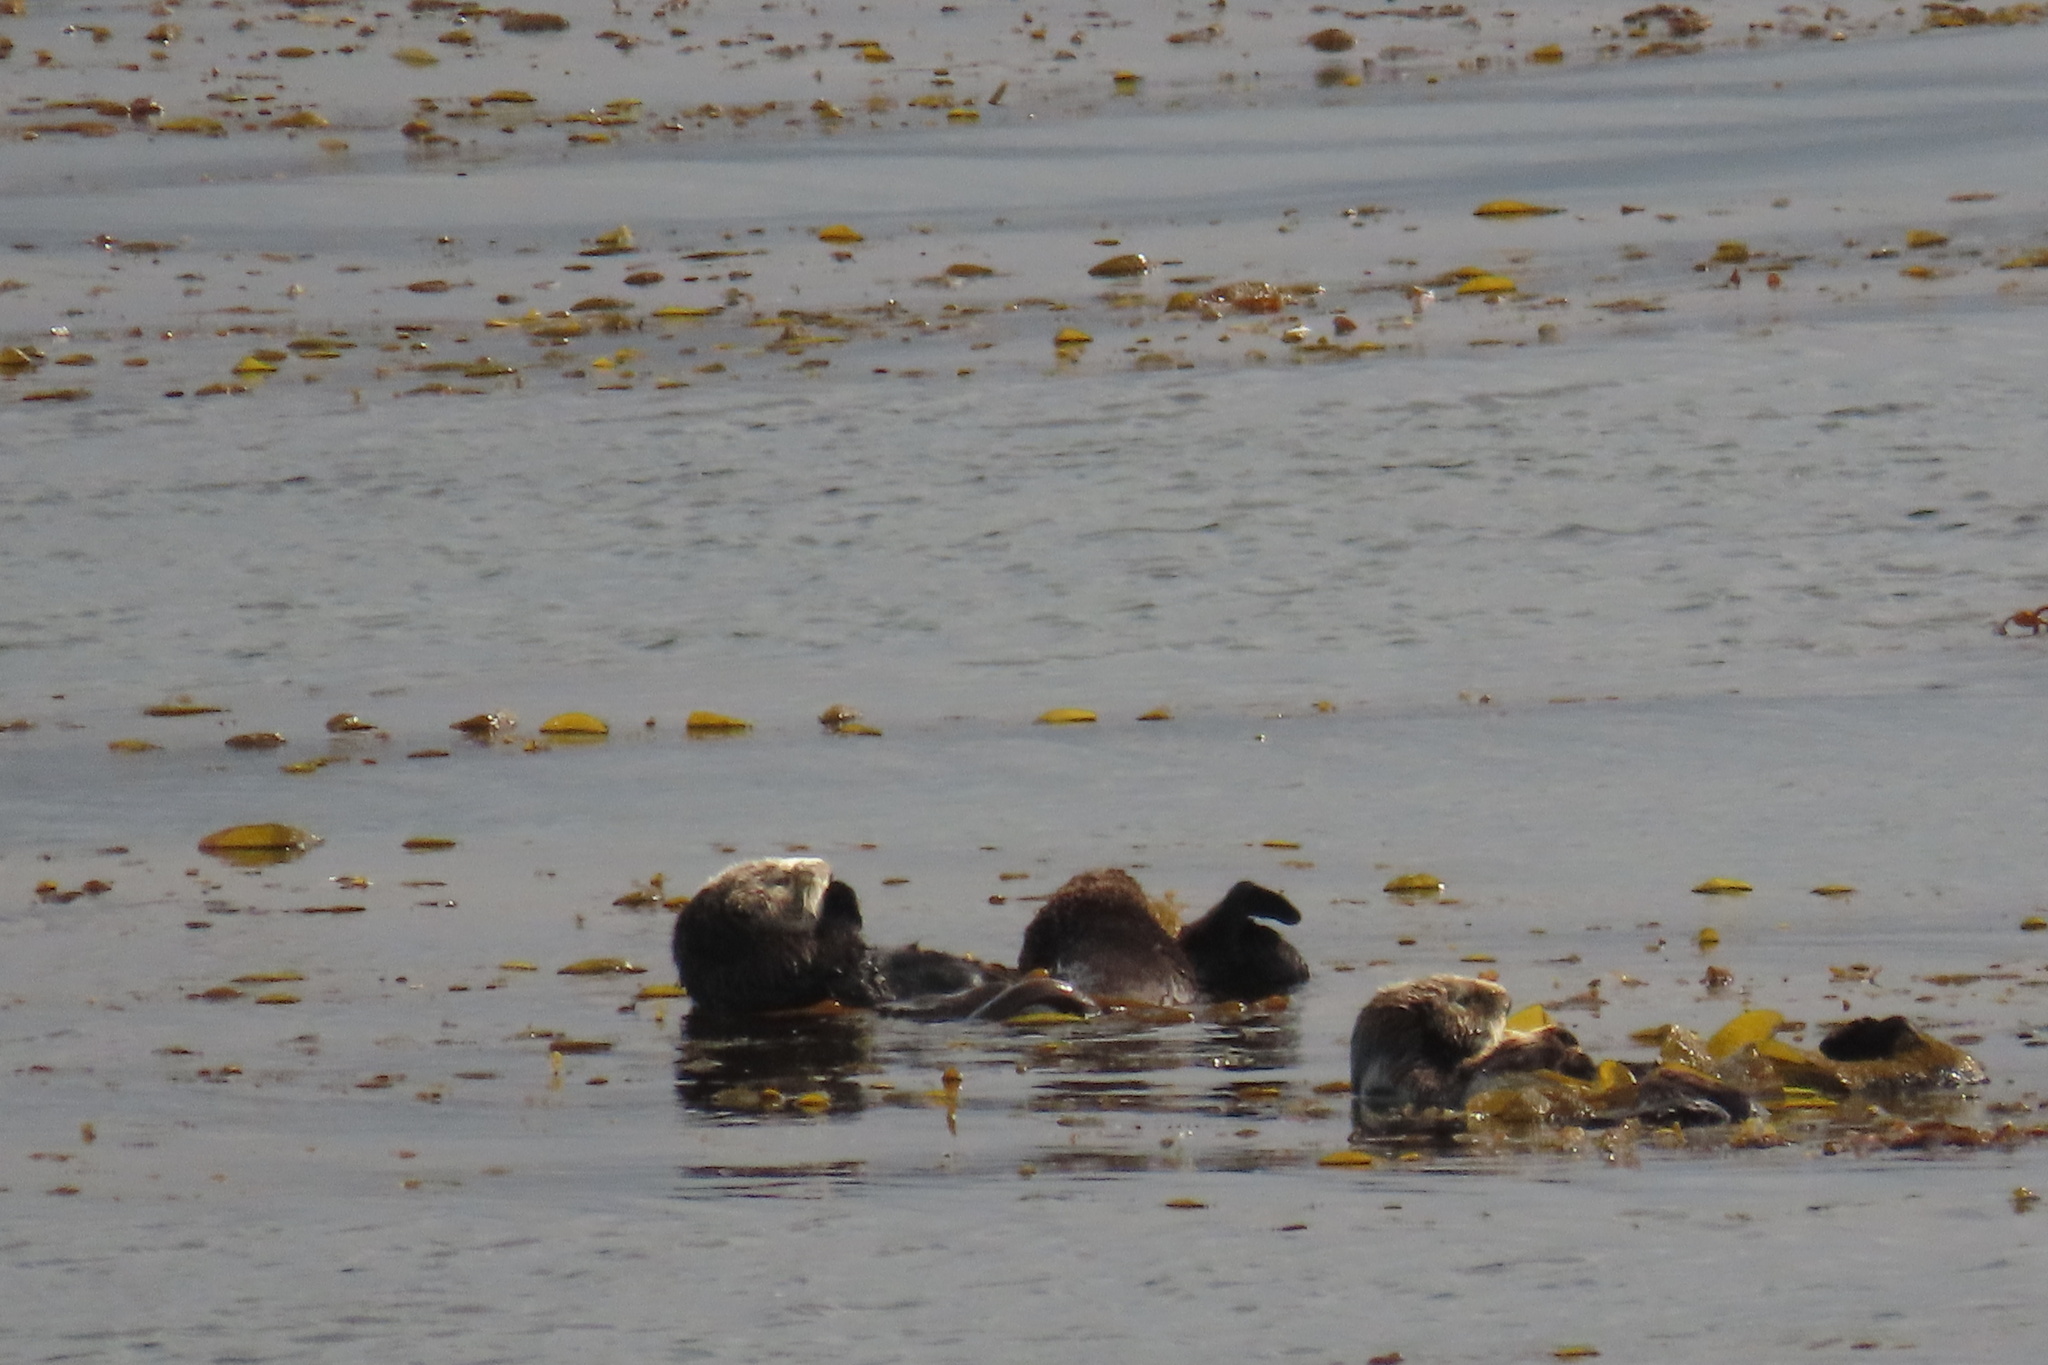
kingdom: Animalia
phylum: Chordata
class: Mammalia
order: Carnivora
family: Mustelidae
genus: Enhydra
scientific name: Enhydra lutris
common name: Sea otter
